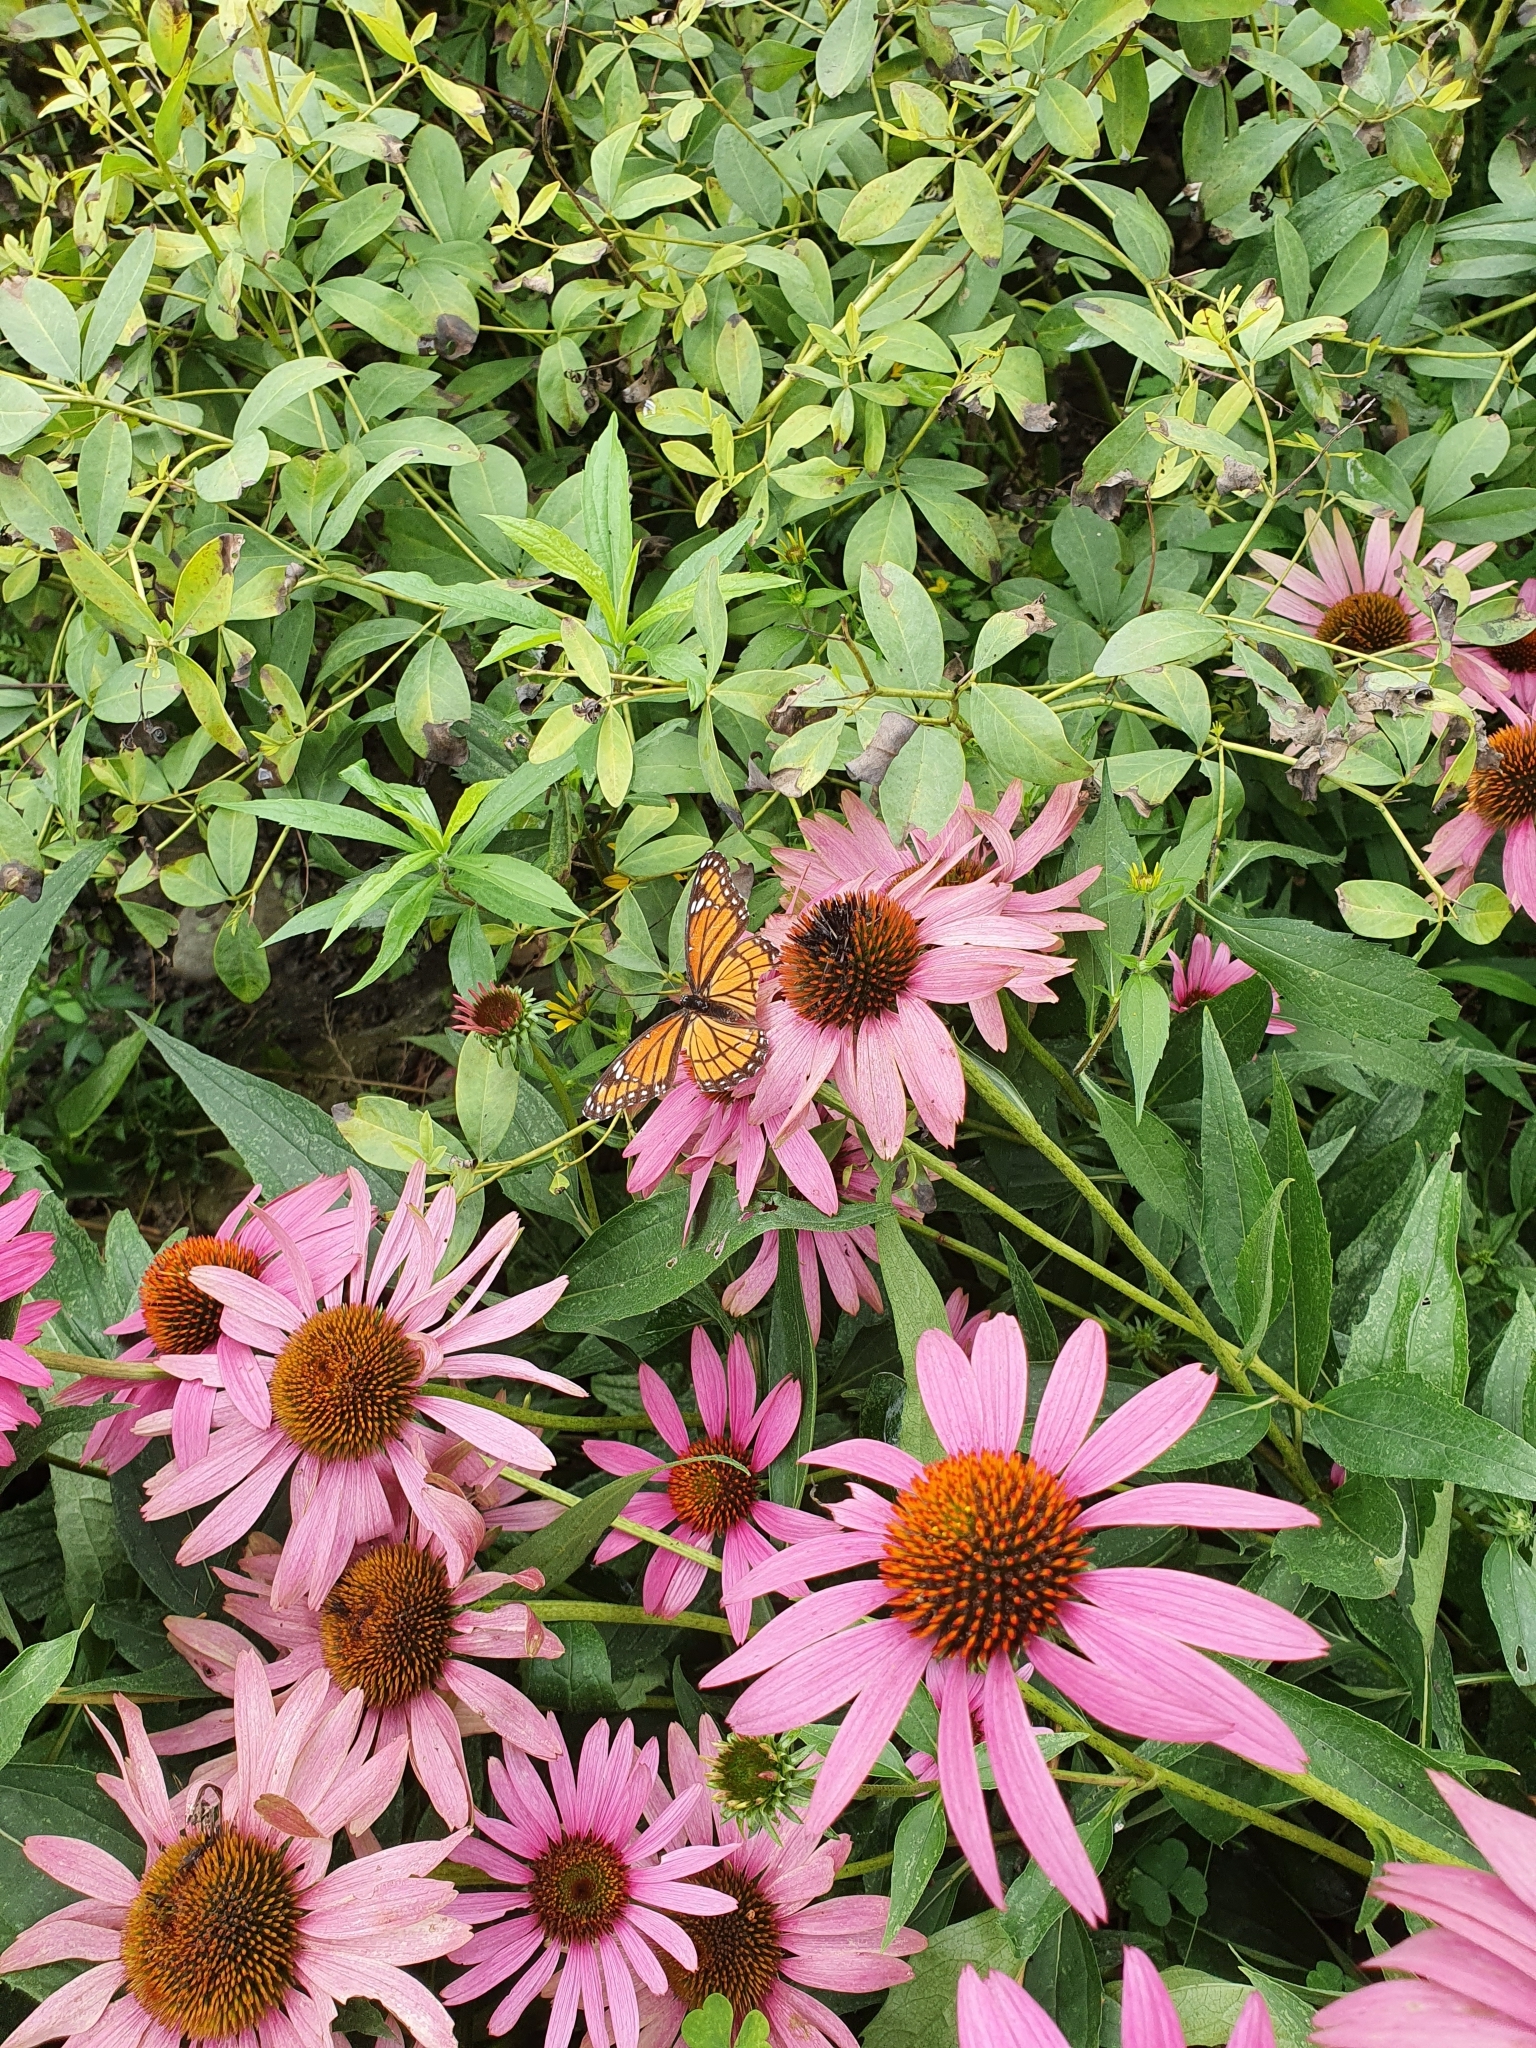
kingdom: Animalia
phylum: Arthropoda
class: Insecta
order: Lepidoptera
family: Nymphalidae
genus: Limenitis
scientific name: Limenitis archippus
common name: Viceroy
